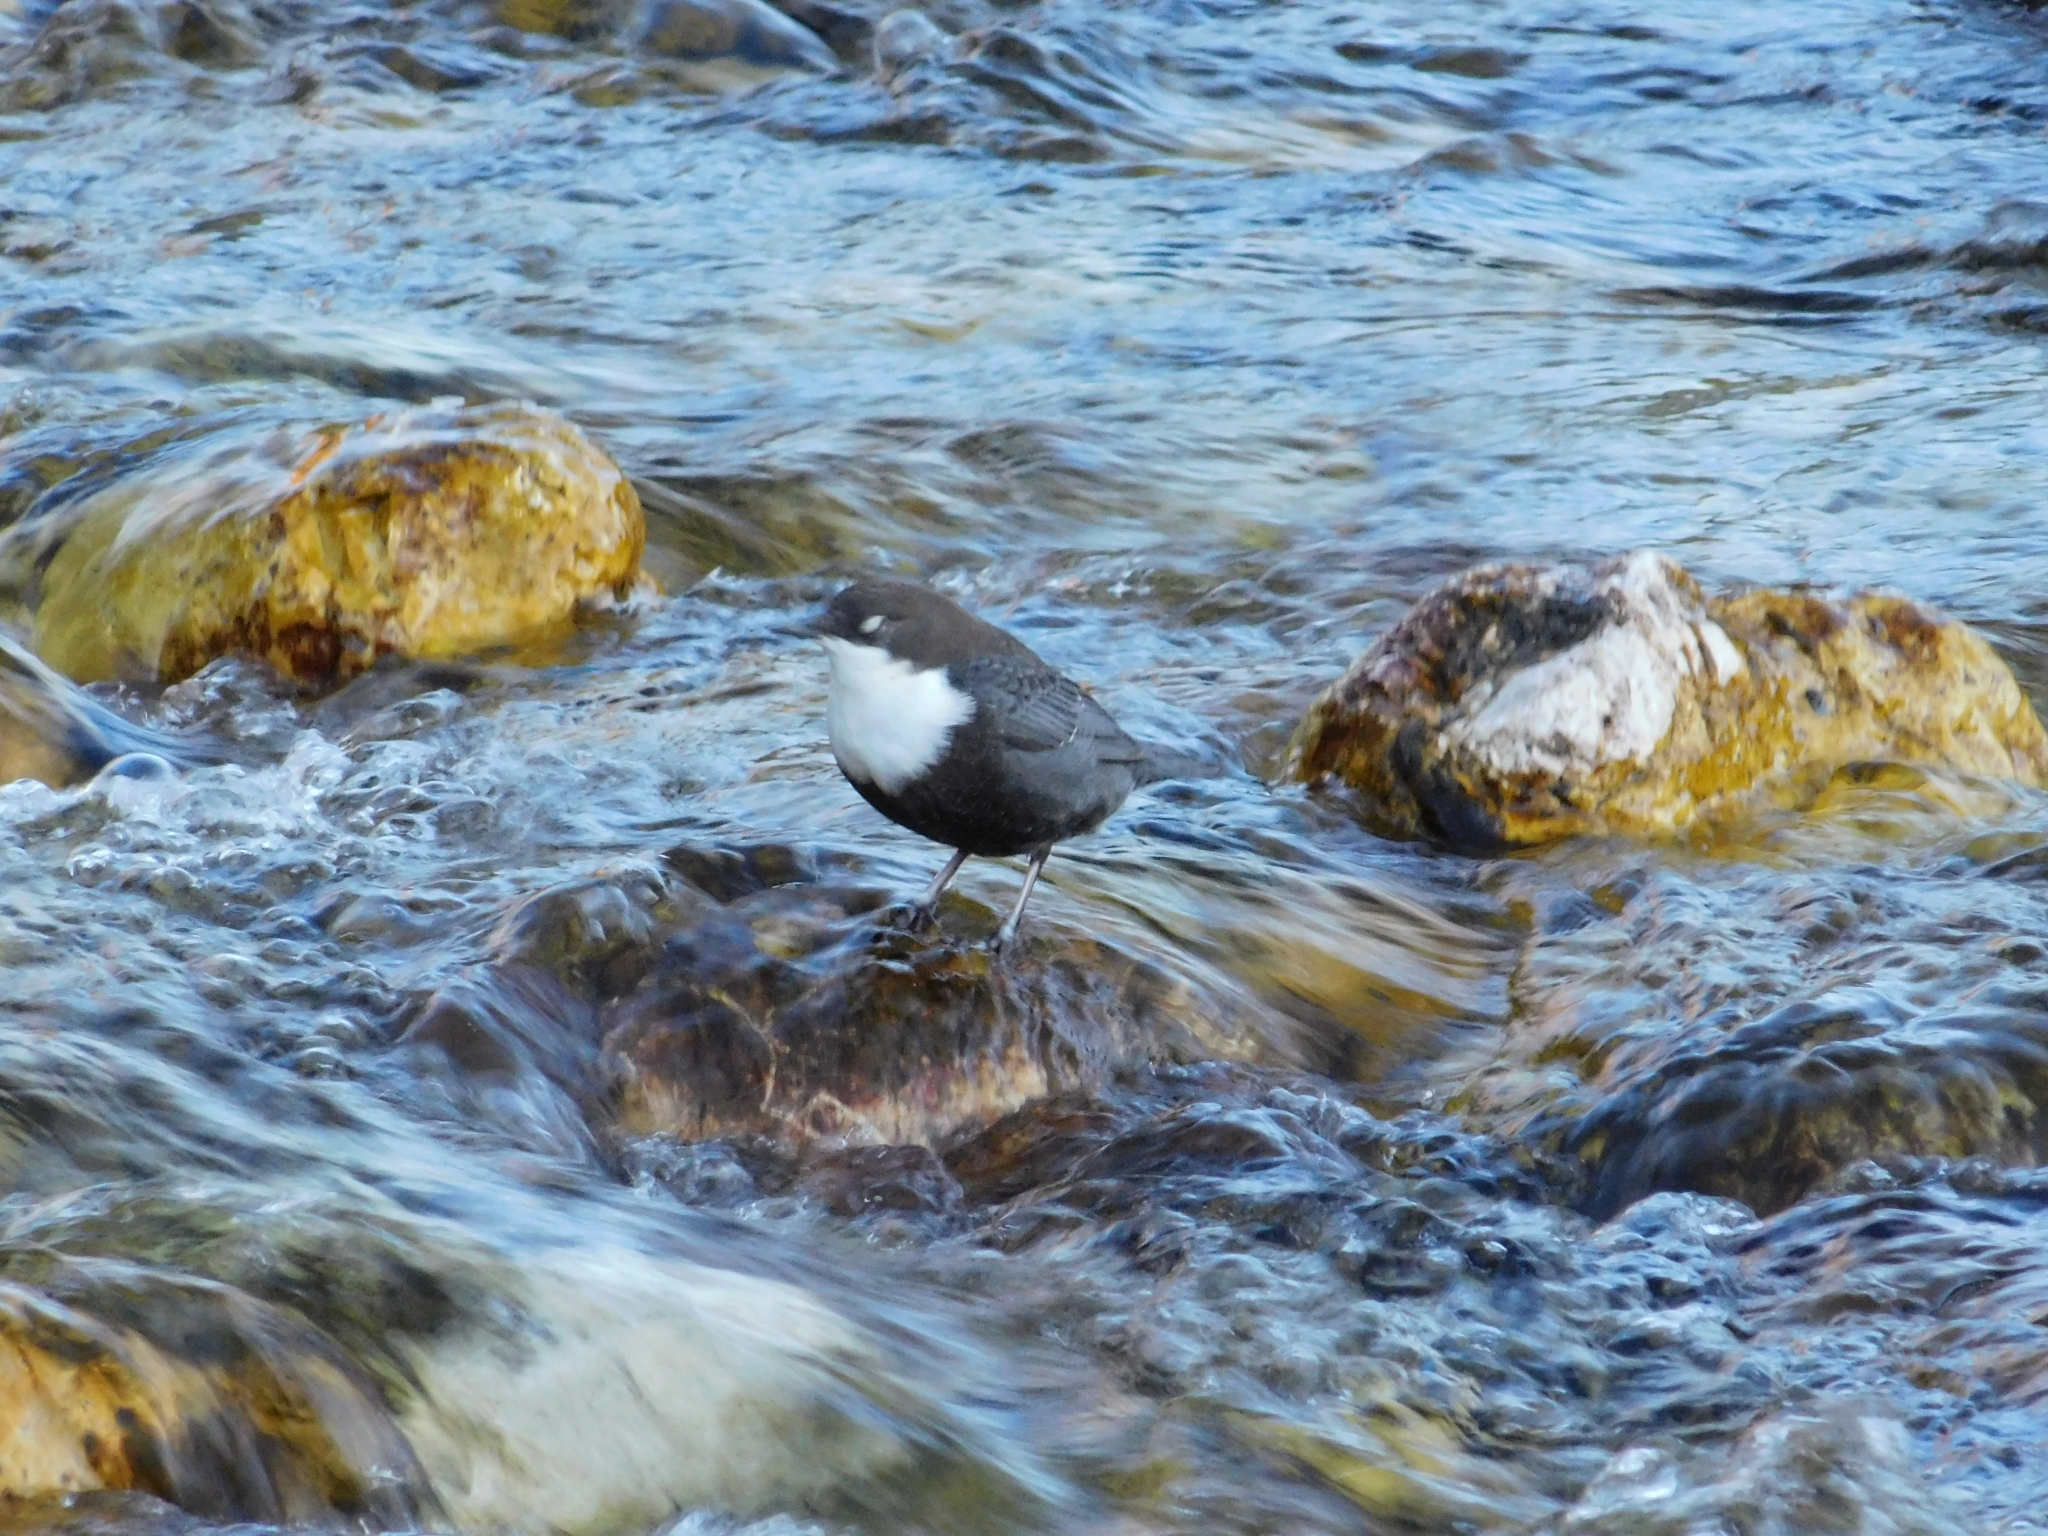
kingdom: Animalia
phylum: Chordata
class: Aves
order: Passeriformes
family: Cinclidae
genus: Cinclus
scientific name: Cinclus cinclus
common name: White-throated dipper
